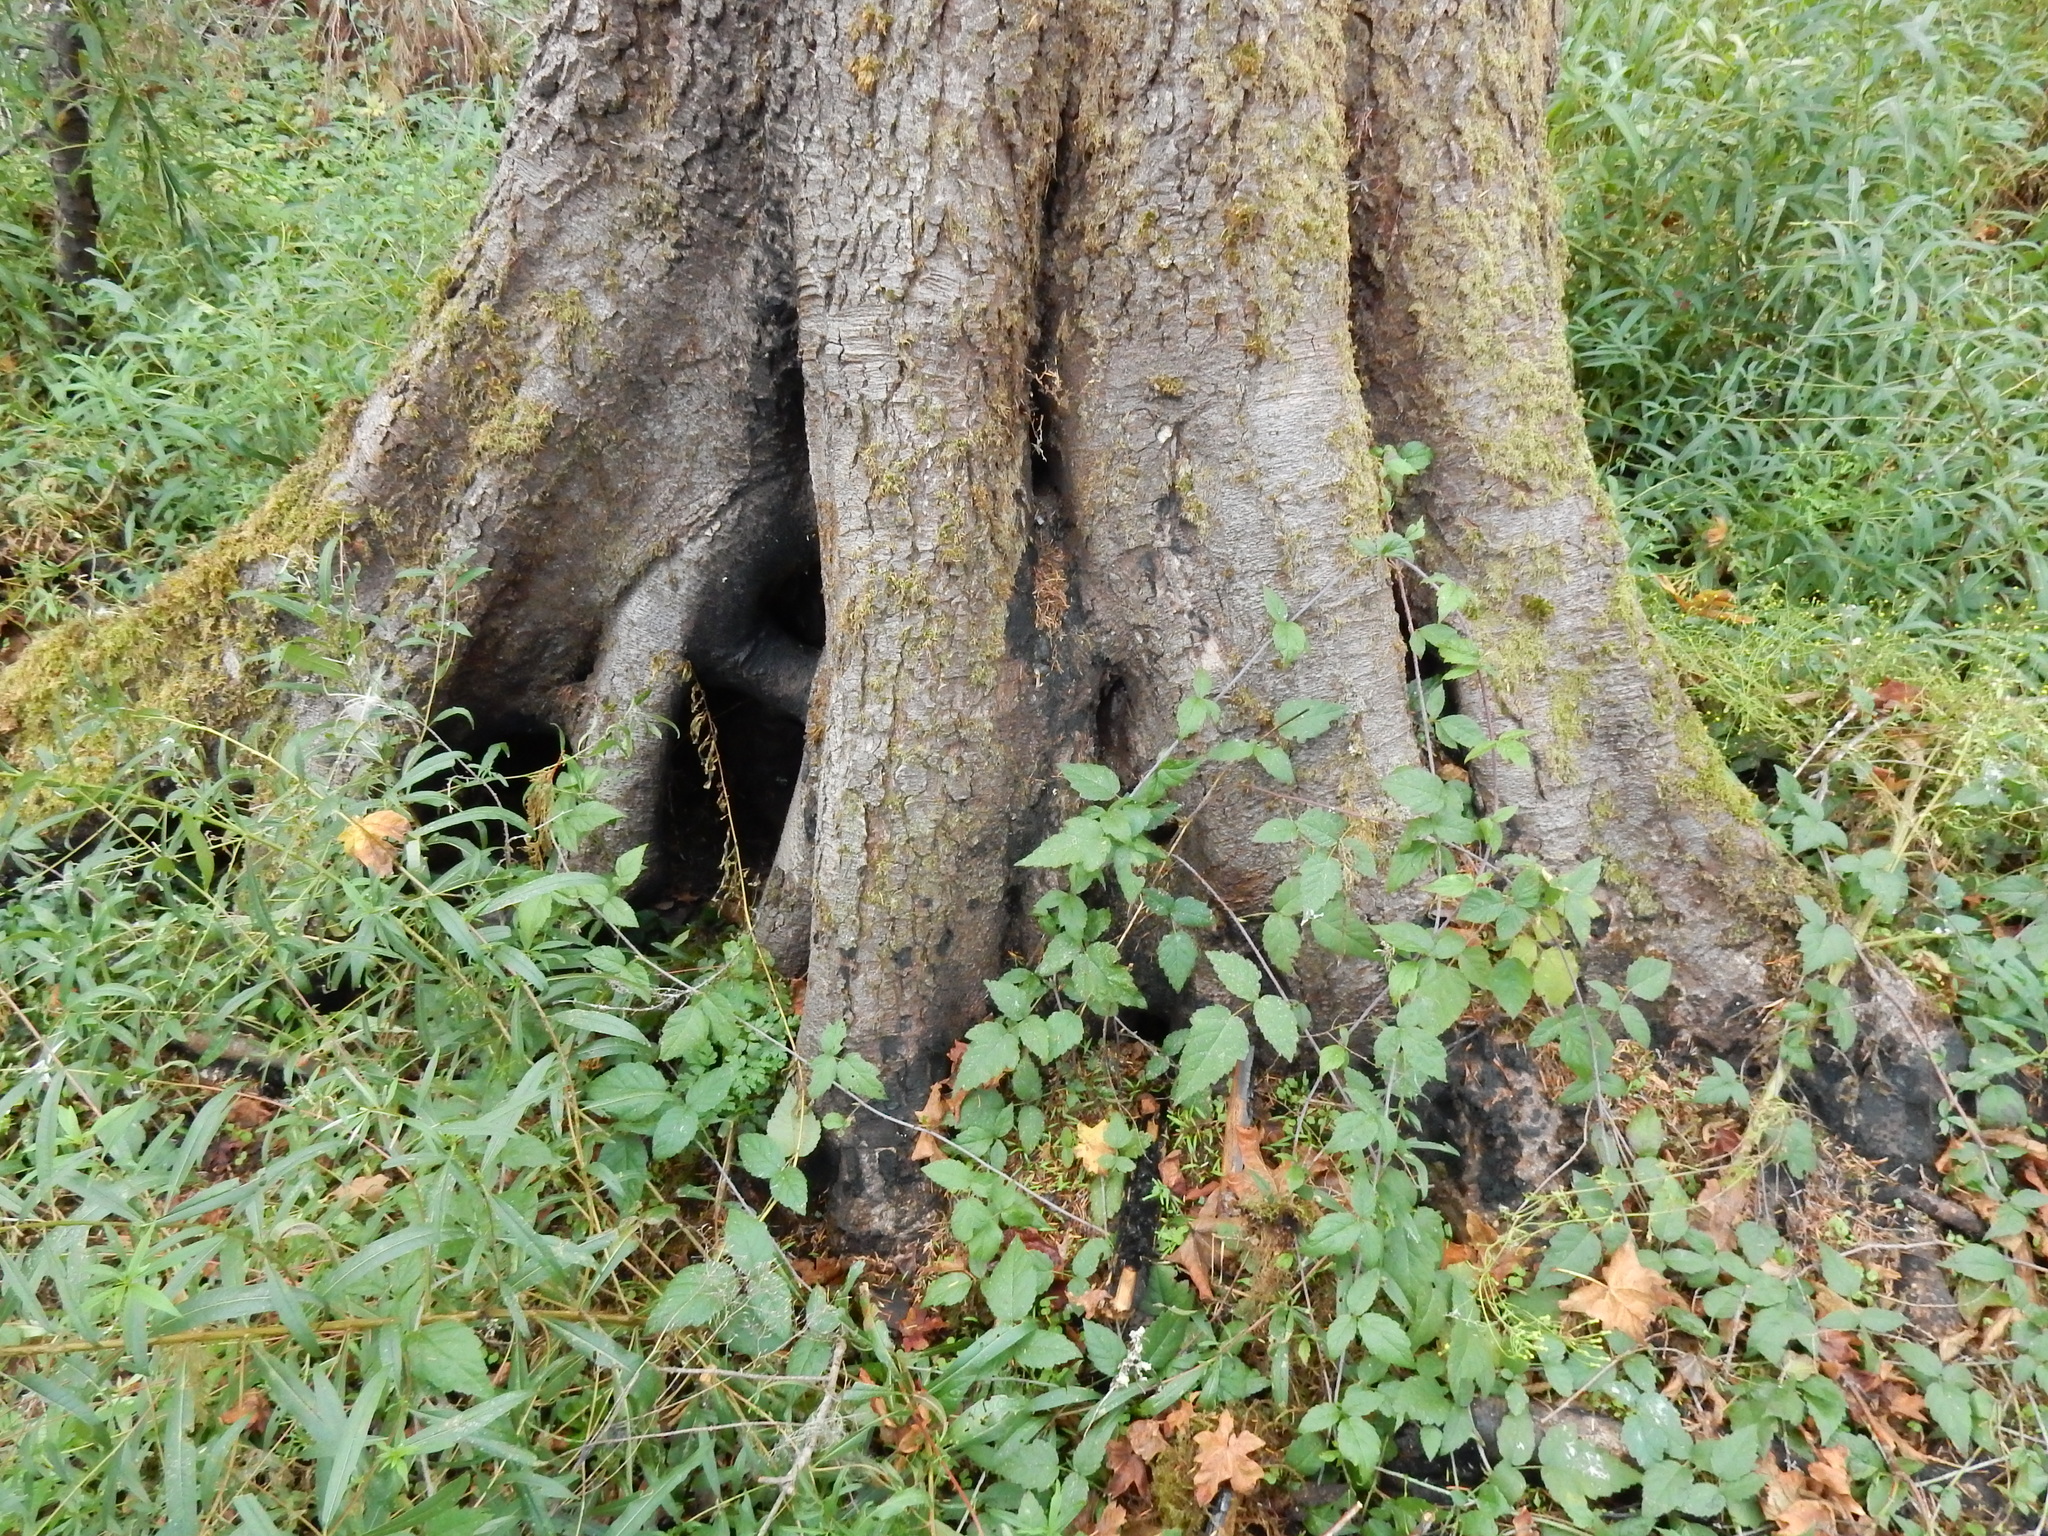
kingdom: Plantae
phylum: Tracheophyta
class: Pinopsida
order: Pinales
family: Pinaceae
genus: Tsuga
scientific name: Tsuga heterophylla
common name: Western hemlock
